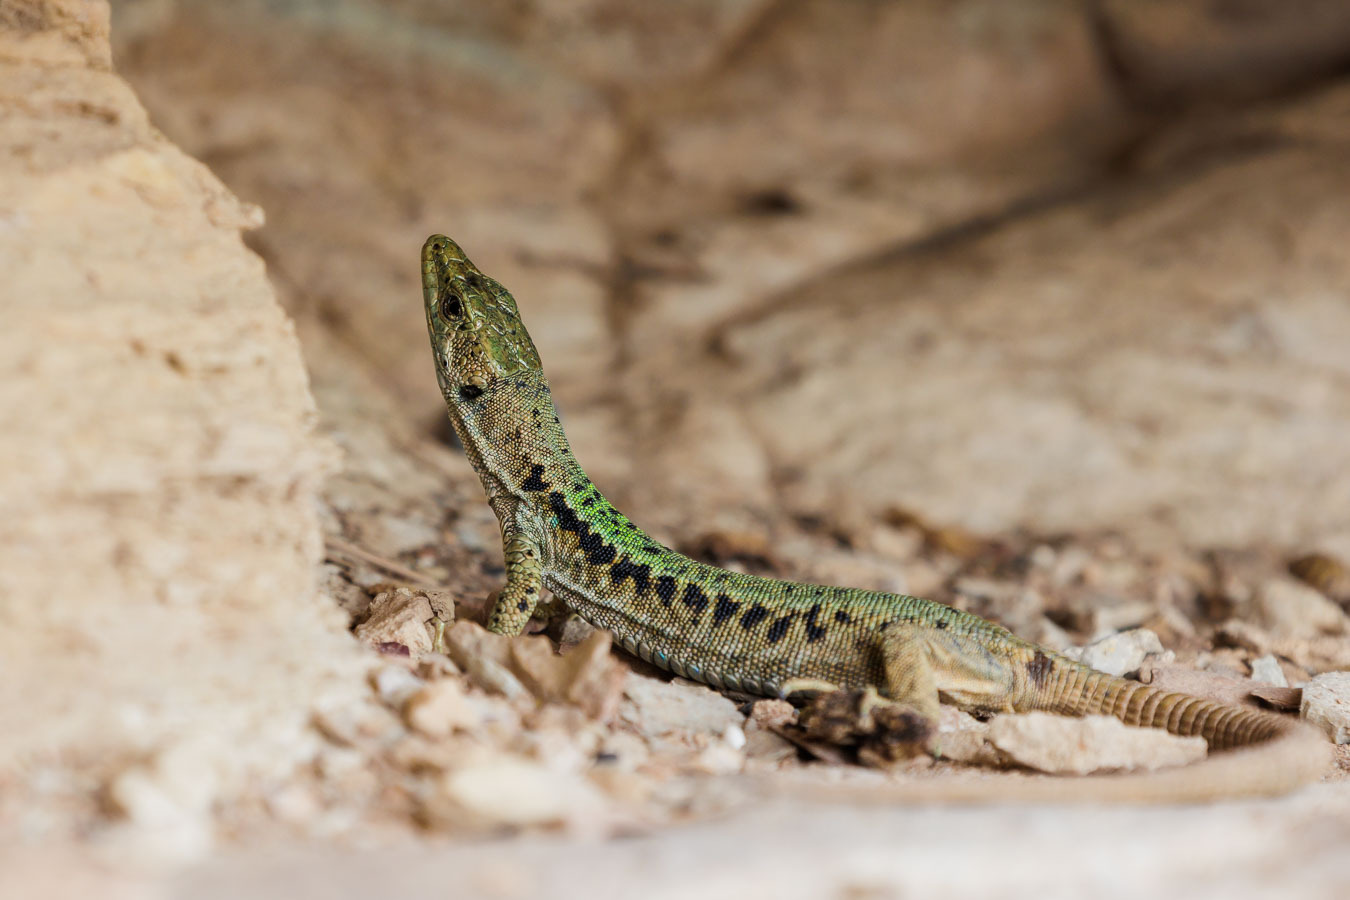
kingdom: Animalia
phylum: Chordata
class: Squamata
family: Lacertidae
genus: Darevskia
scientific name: Darevskia brauneri
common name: Brauner's rock lizard
